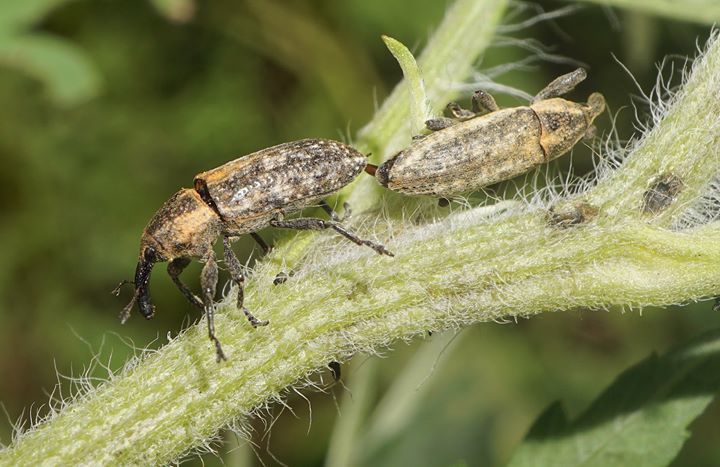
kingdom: Animalia
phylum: Arthropoda
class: Insecta
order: Coleoptera
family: Curculionidae
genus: Lixus
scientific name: Lixus scrobicollis
